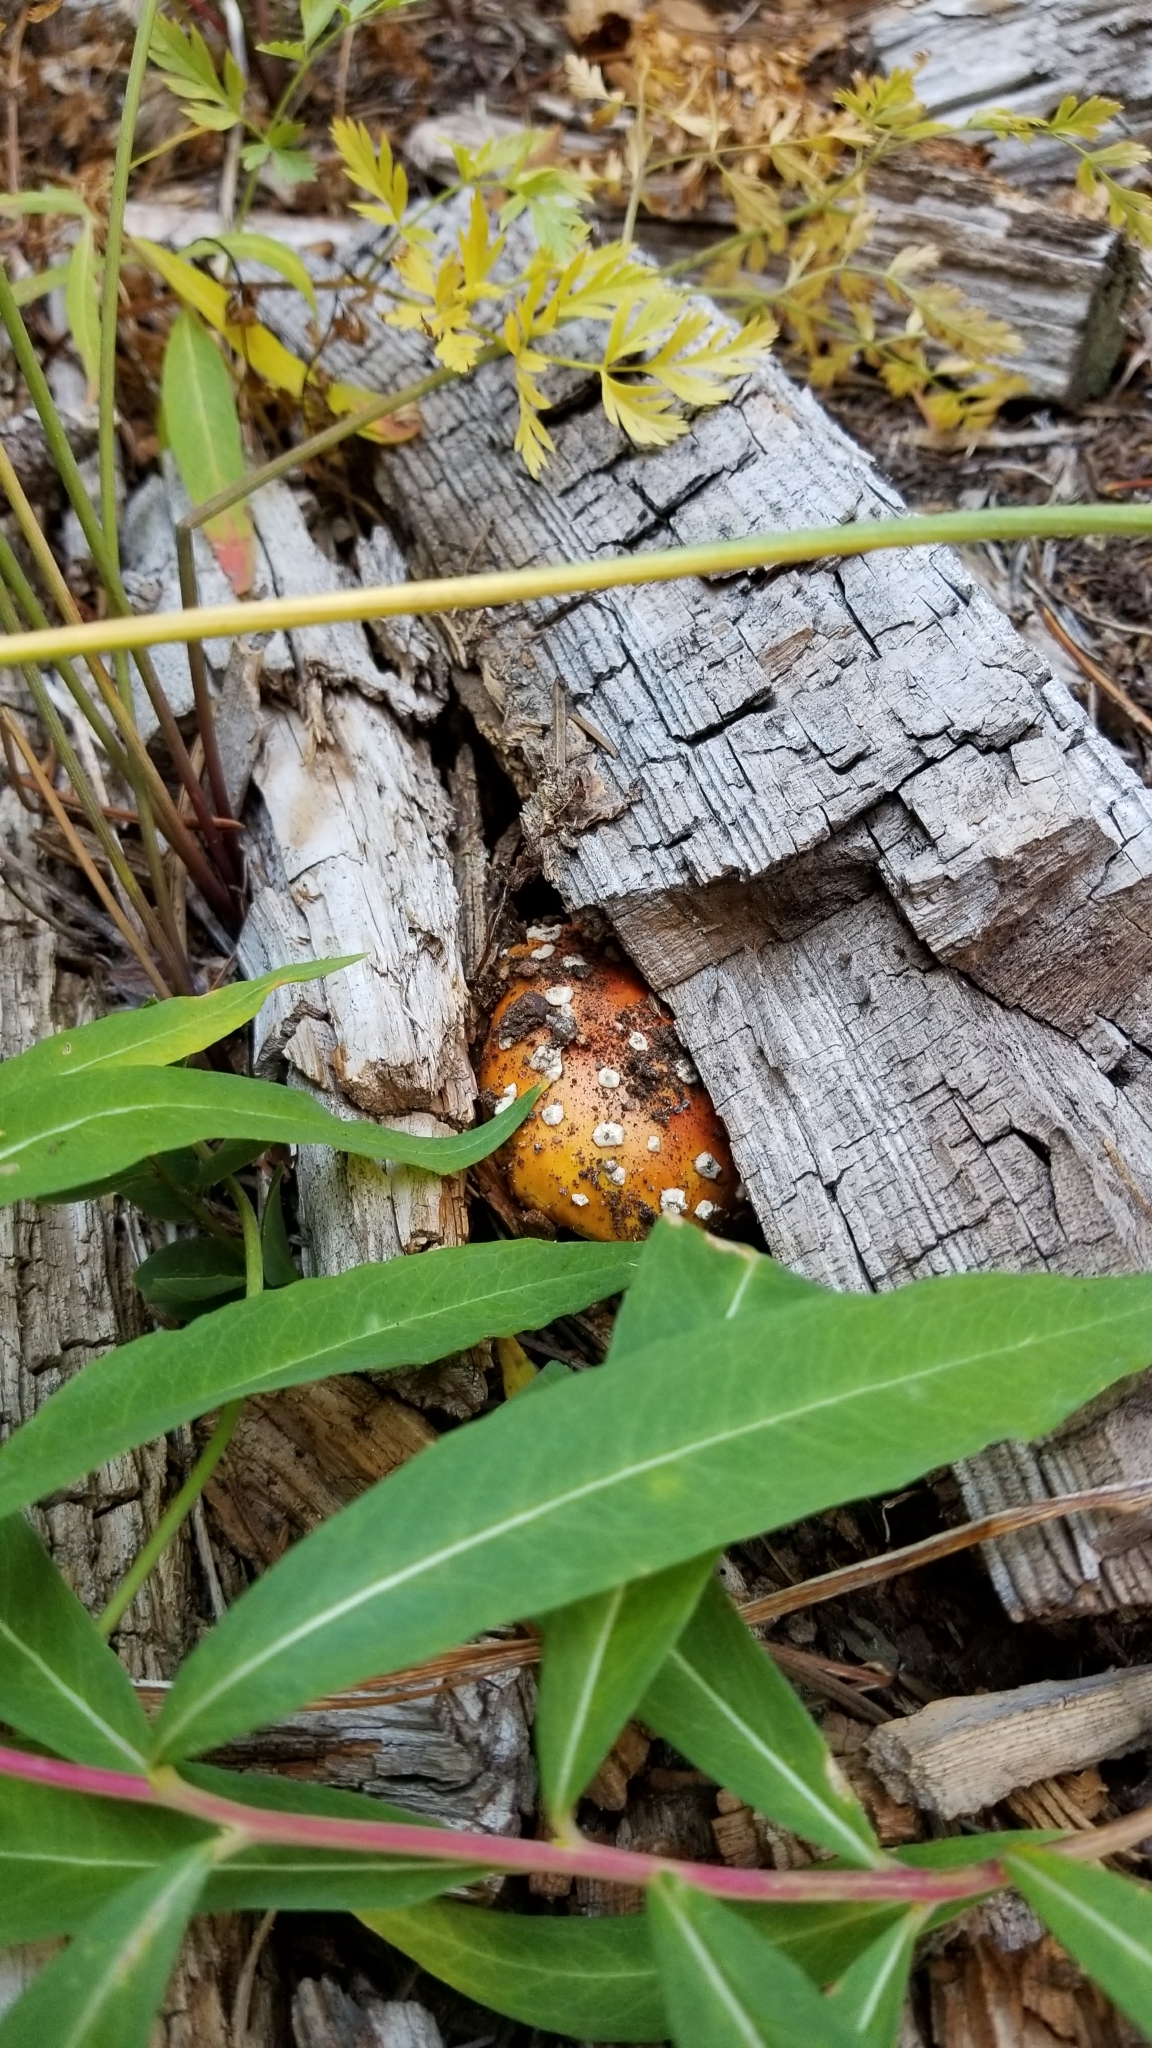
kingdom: Fungi
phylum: Basidiomycota
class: Agaricomycetes
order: Agaricales
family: Amanitaceae
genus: Amanita
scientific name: Amanita muscaria
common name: Fly agaric
